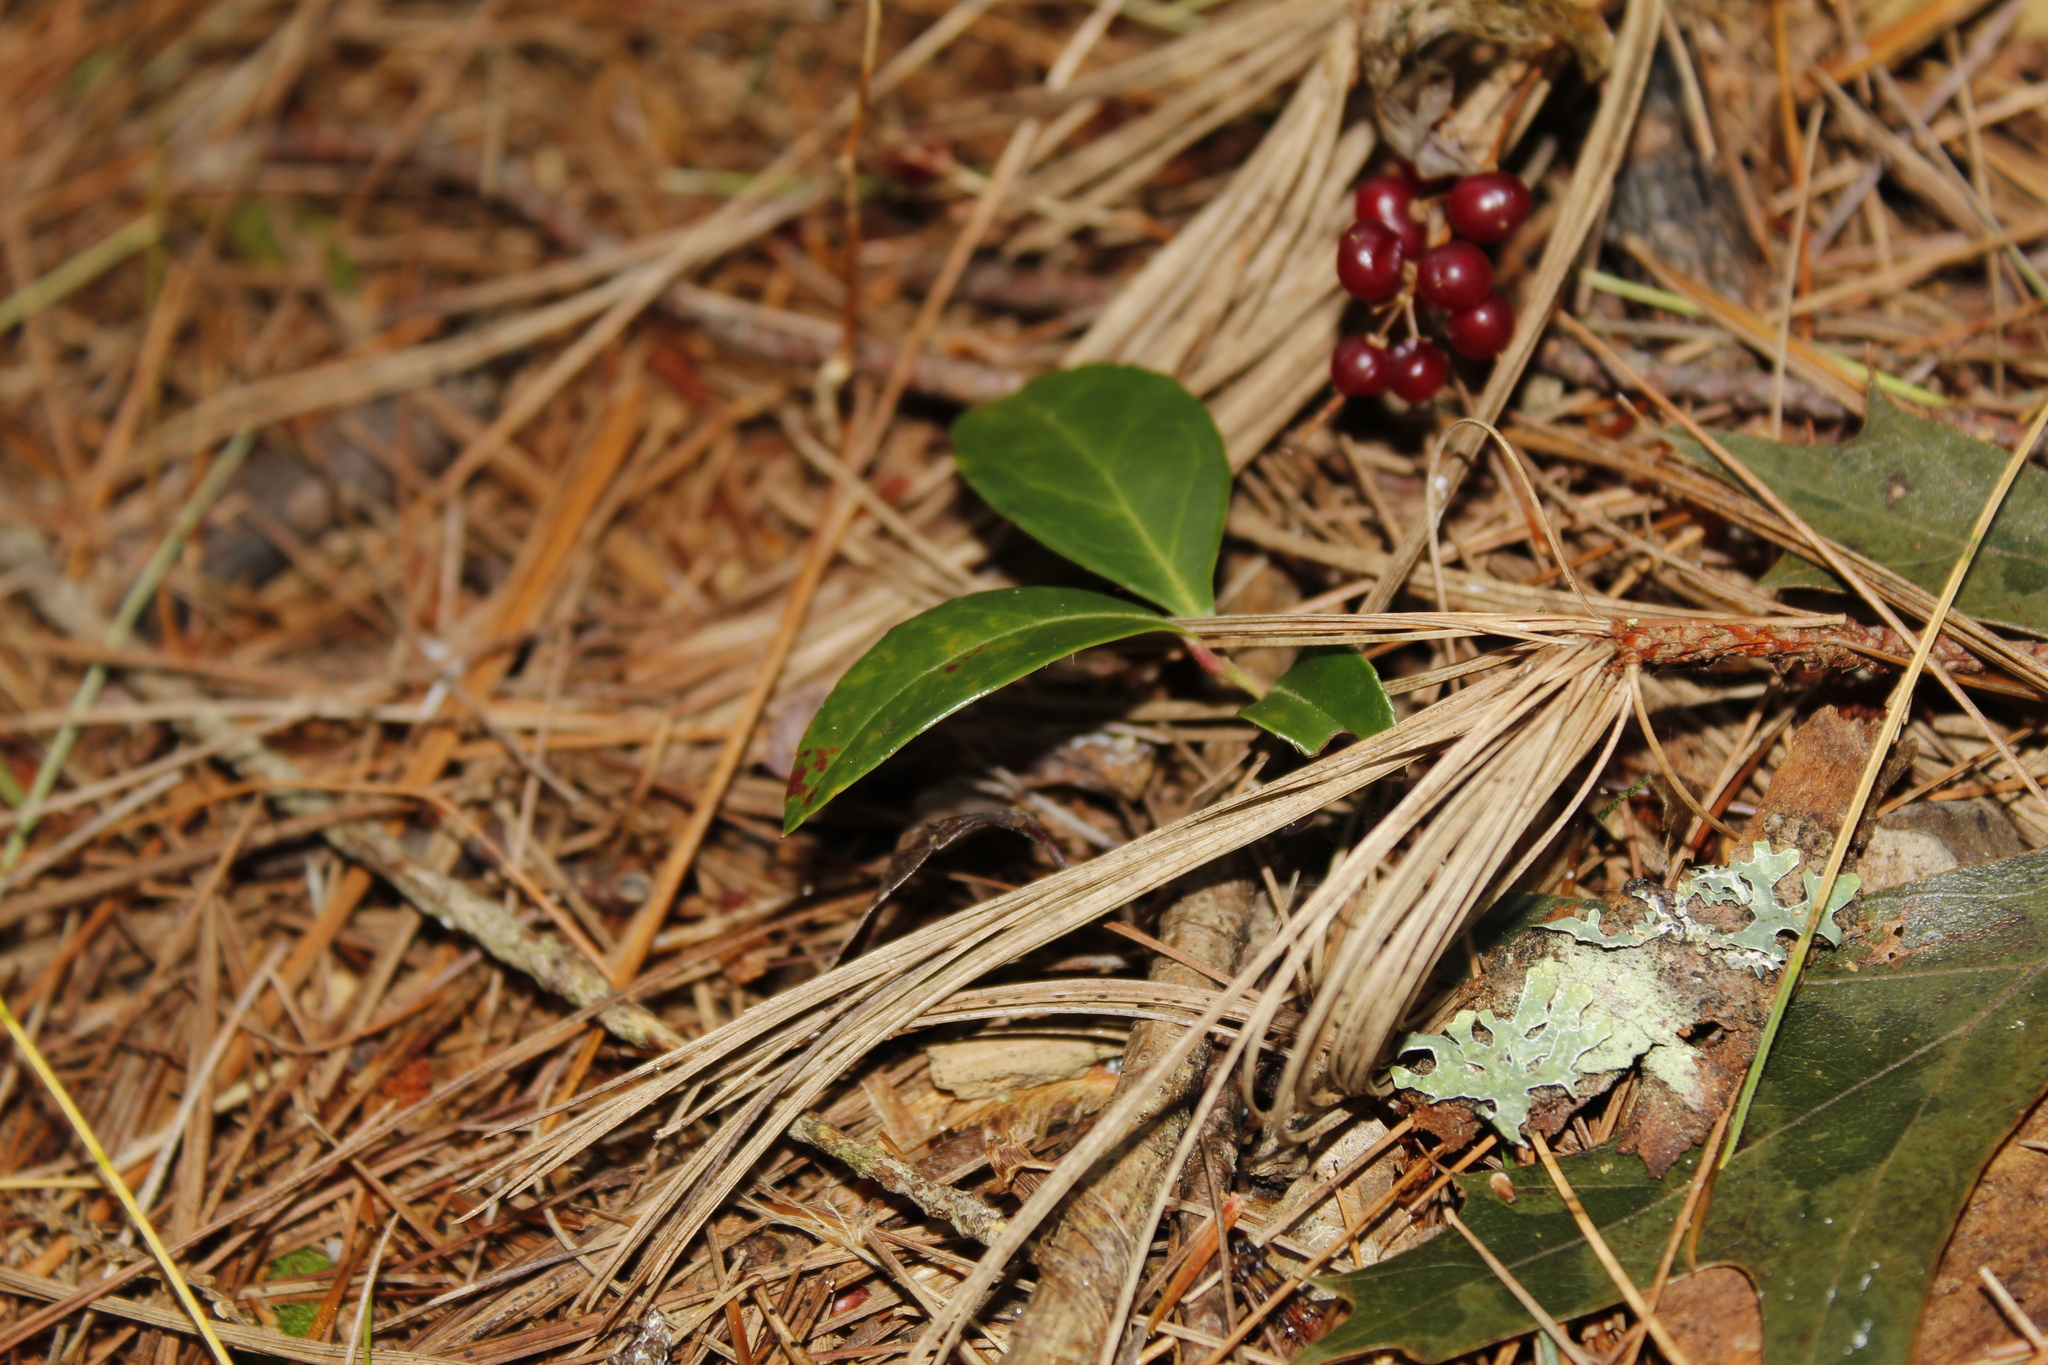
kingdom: Plantae
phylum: Tracheophyta
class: Magnoliopsida
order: Ericales
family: Ericaceae
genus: Gaultheria
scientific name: Gaultheria procumbens
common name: Checkerberry
